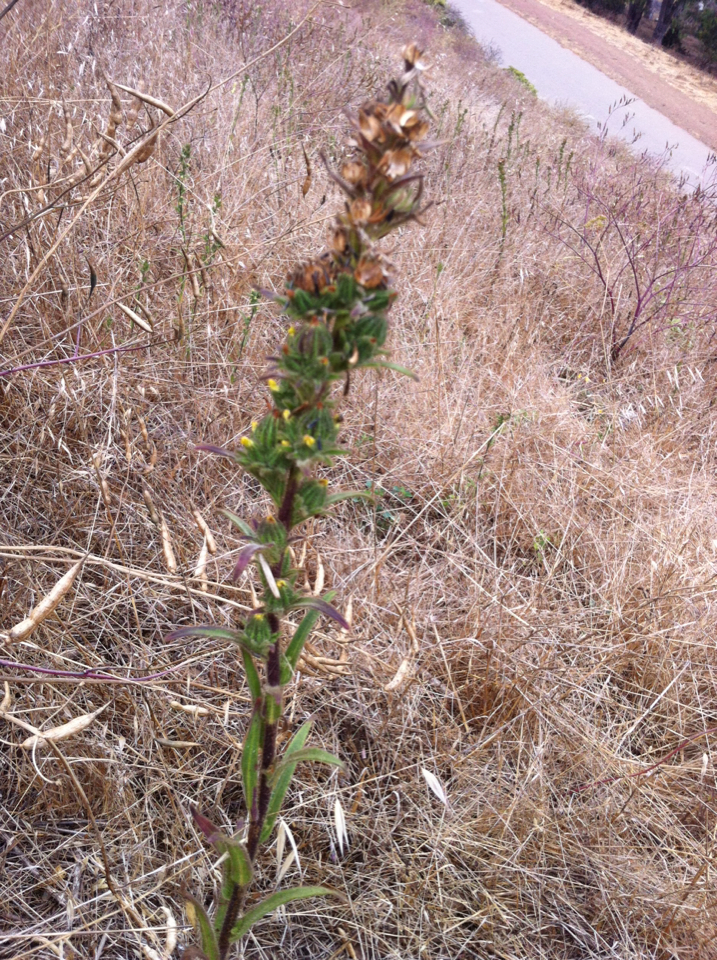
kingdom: Plantae
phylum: Tracheophyta
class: Magnoliopsida
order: Asterales
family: Asteraceae
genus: Madia
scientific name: Madia sativa
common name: Coast tarweed
